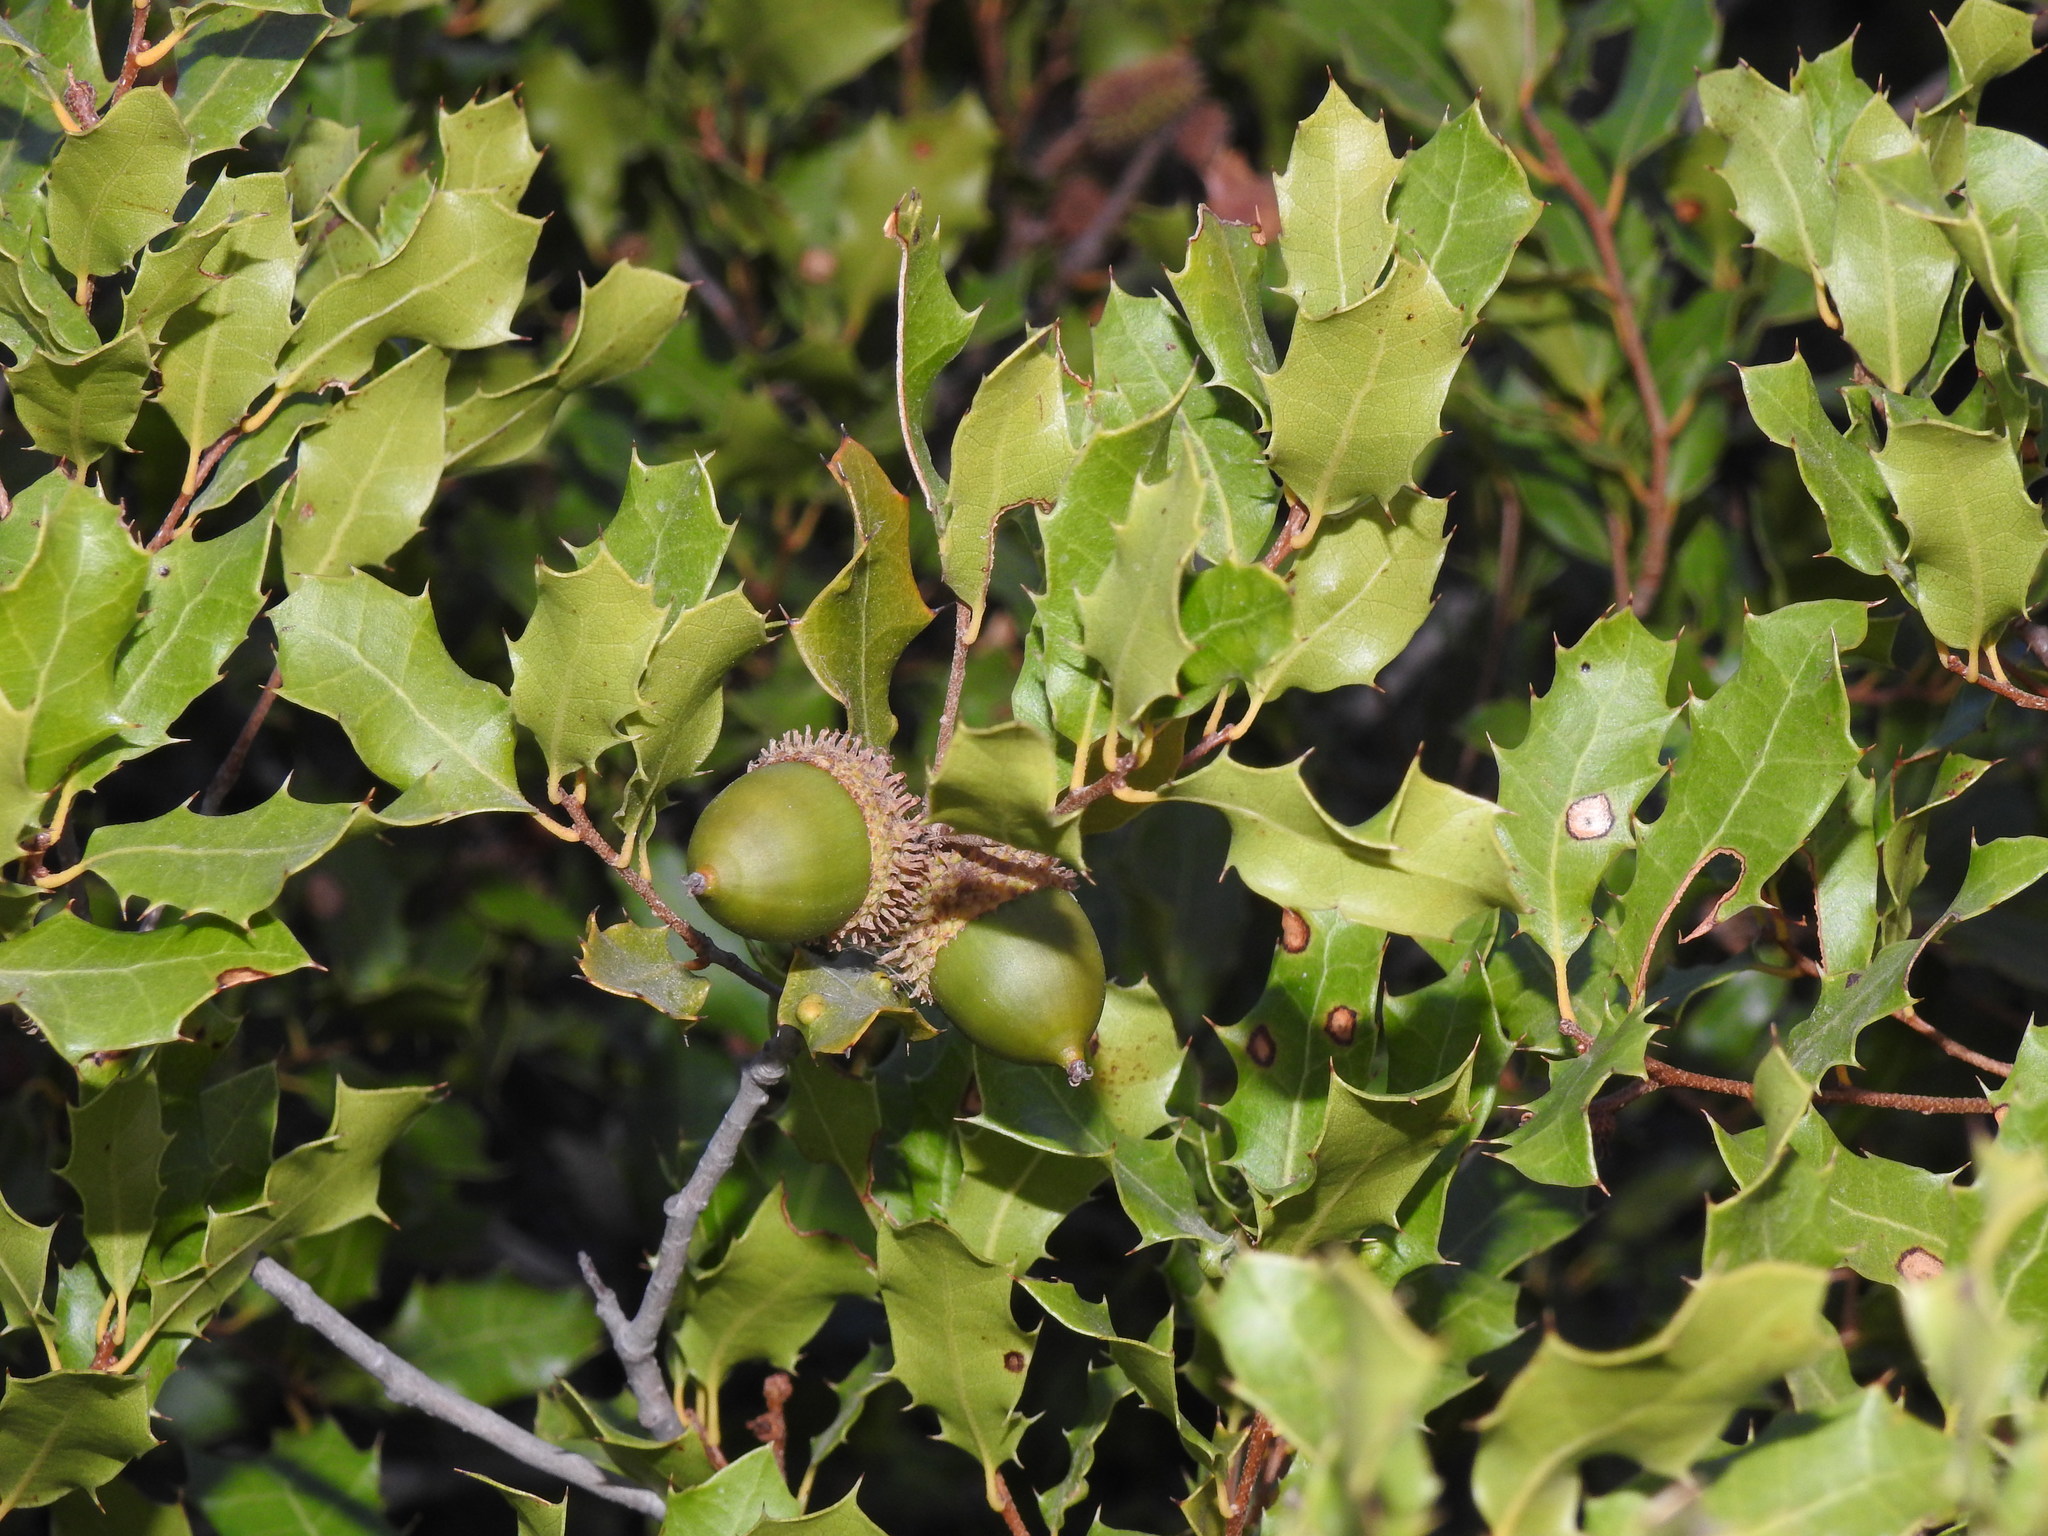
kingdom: Plantae
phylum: Tracheophyta
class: Magnoliopsida
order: Fagales
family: Fagaceae
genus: Quercus
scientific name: Quercus coccifera
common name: Kermes oak
